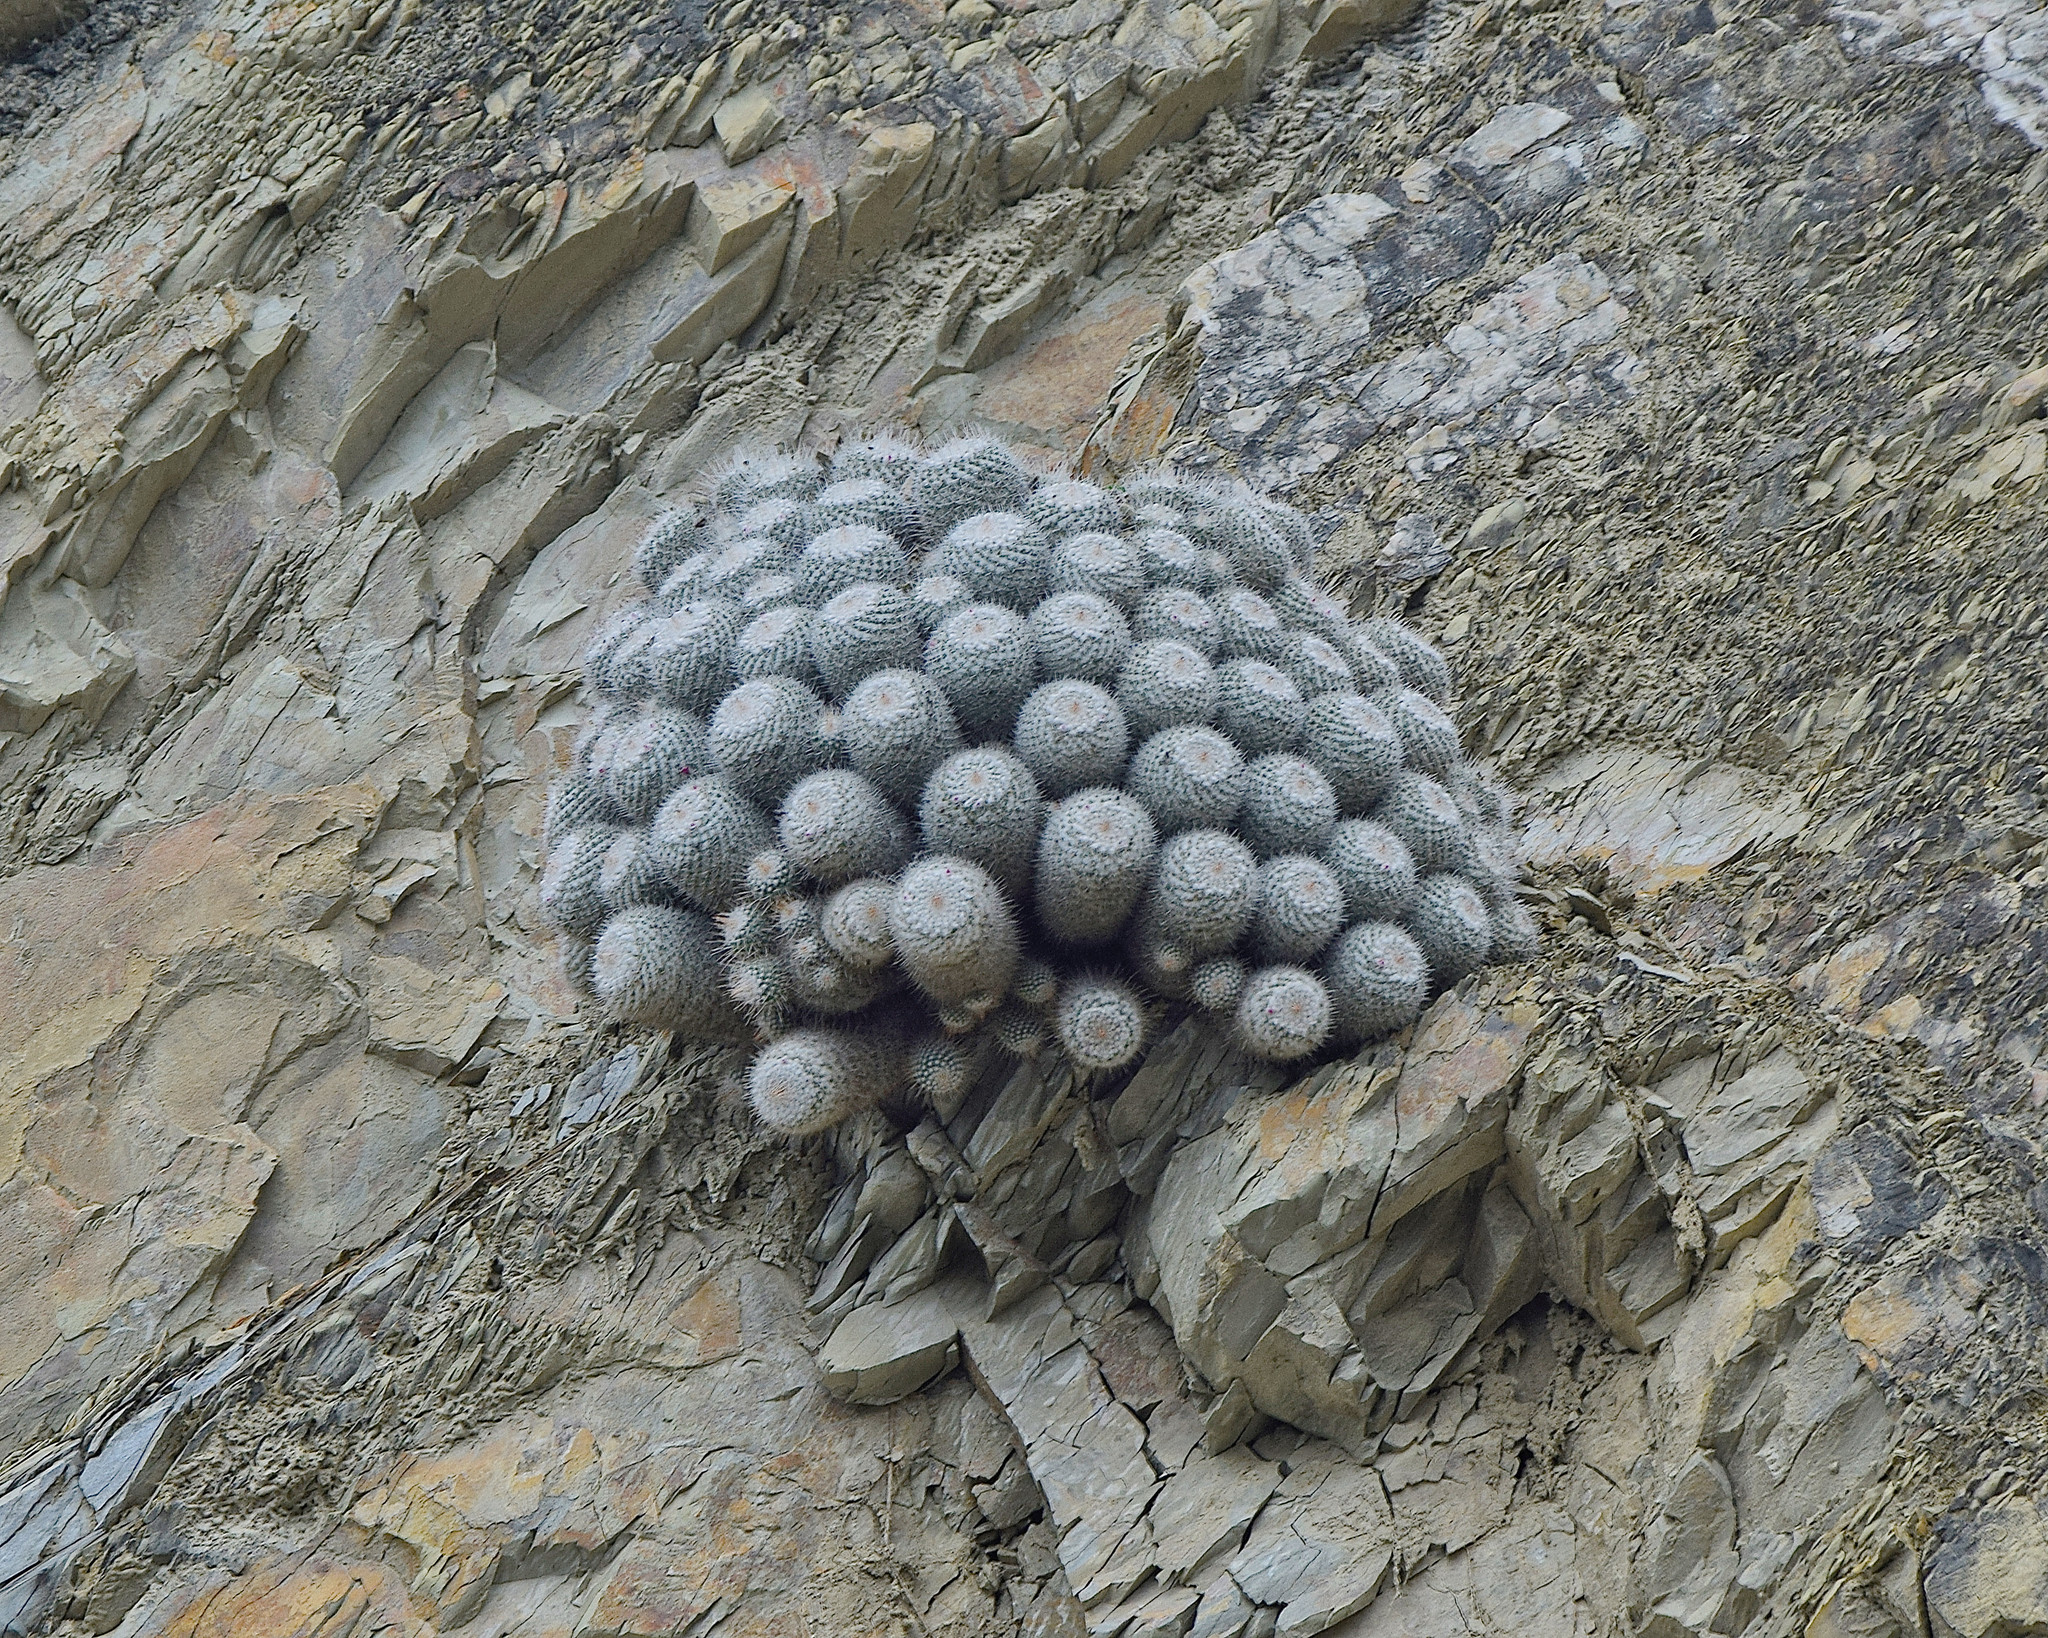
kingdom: Plantae
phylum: Tracheophyta
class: Magnoliopsida
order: Caryophyllales
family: Cactaceae
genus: Mammillaria
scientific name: Mammillaria geminispina
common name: Whitey
